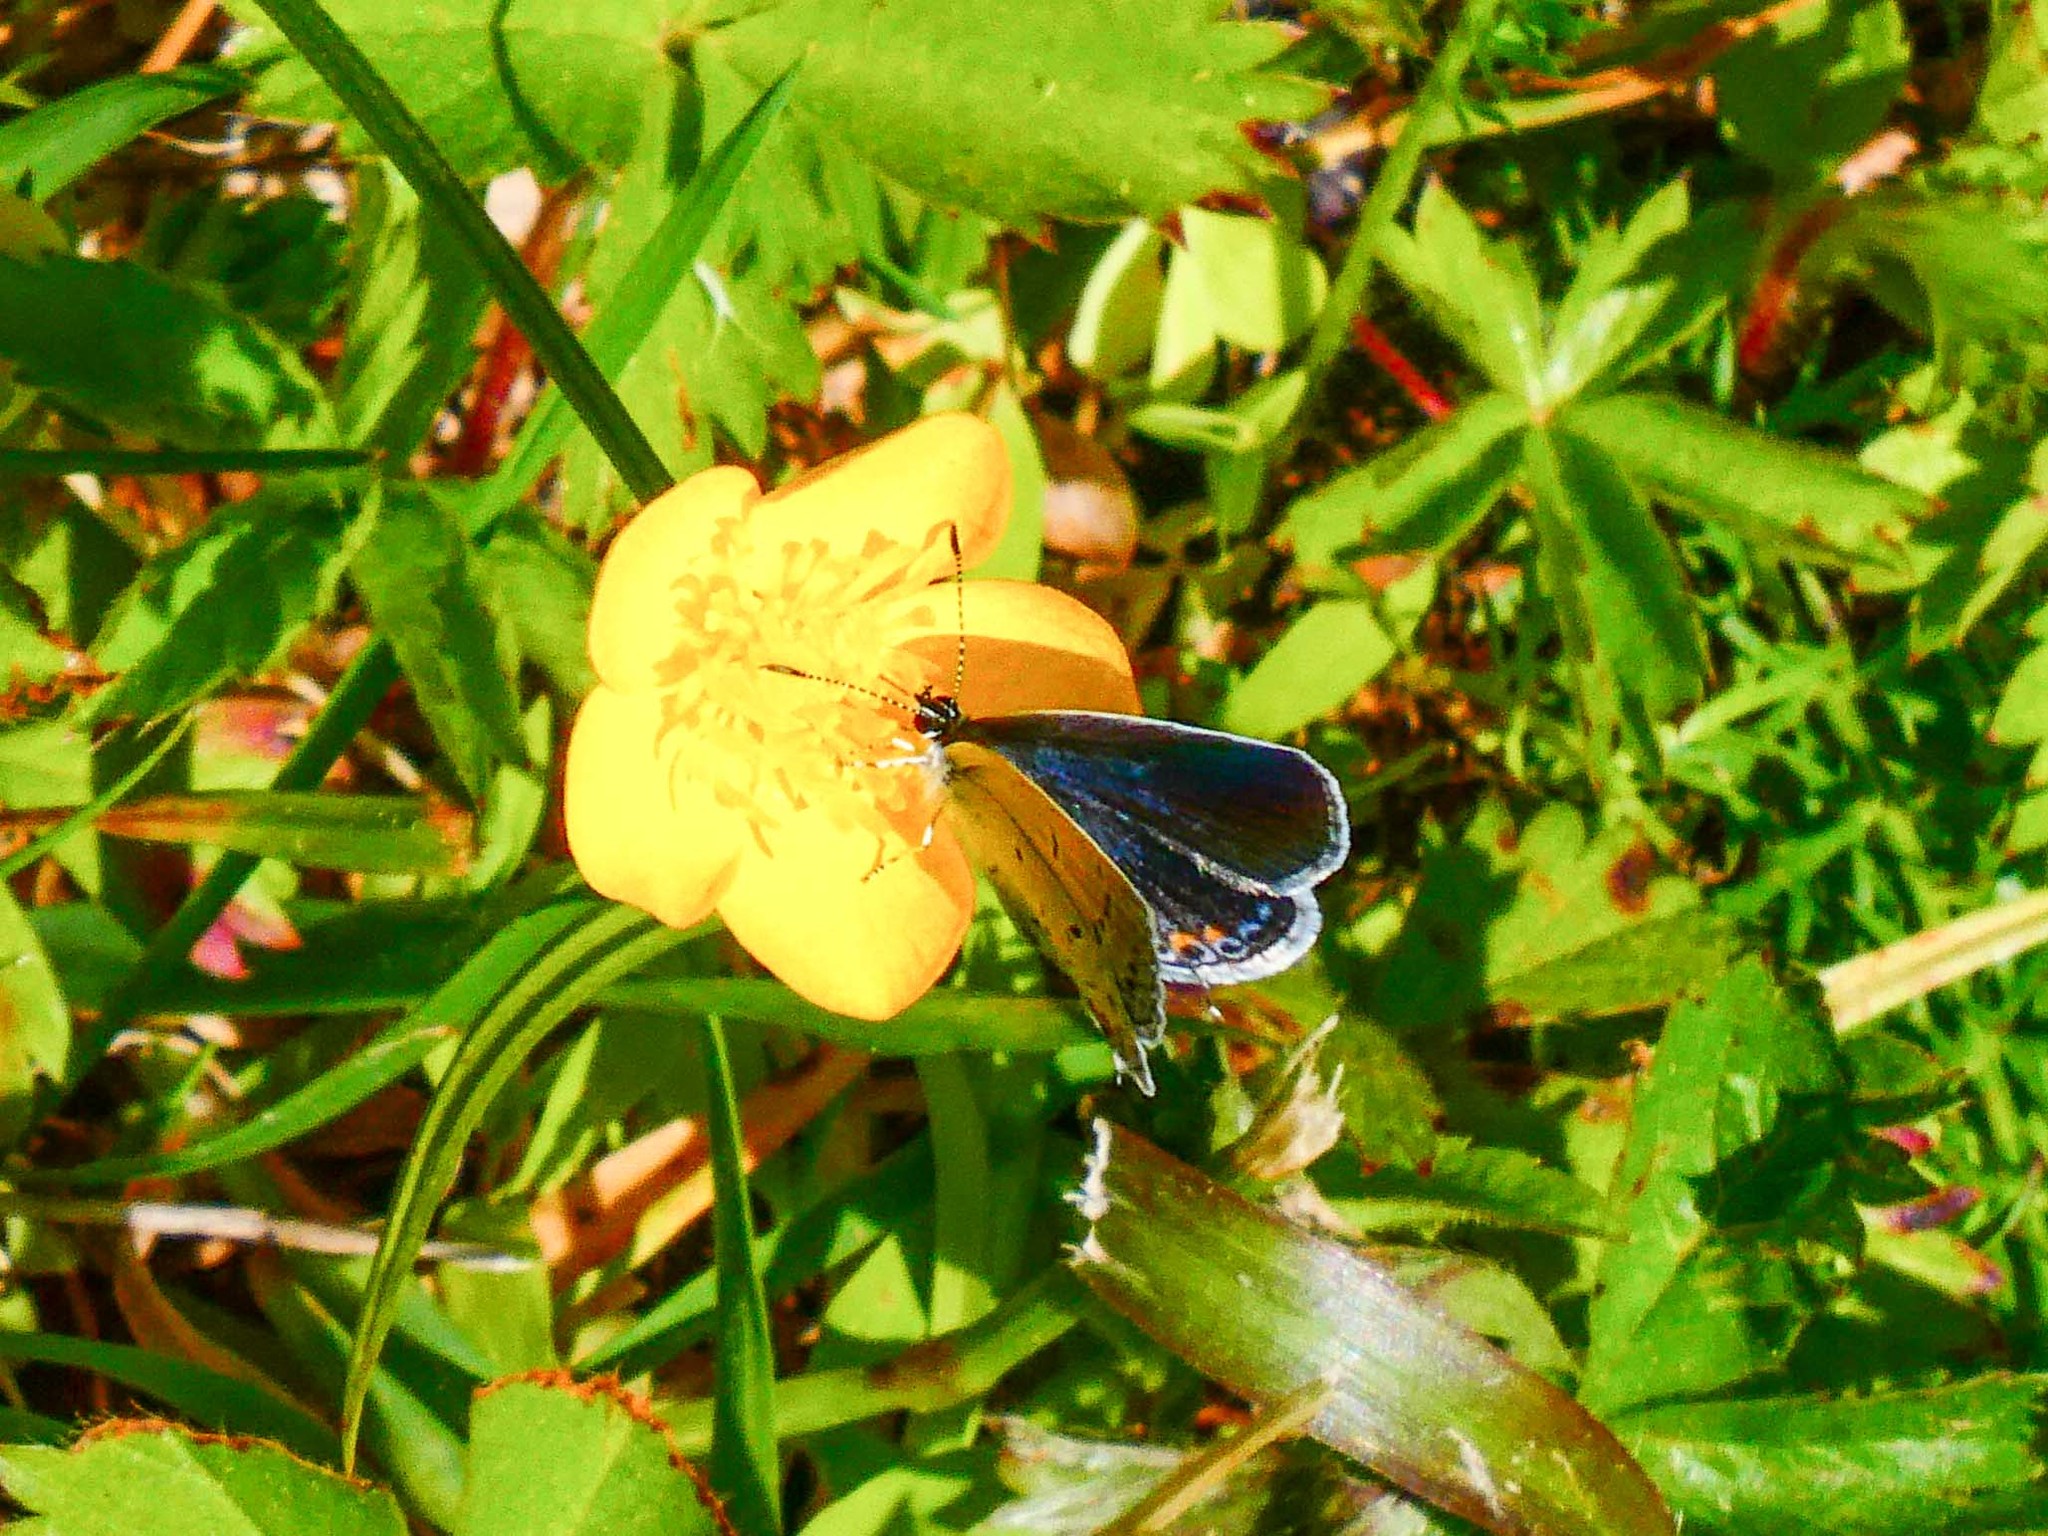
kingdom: Animalia
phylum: Arthropoda
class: Insecta
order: Lepidoptera
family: Lycaenidae
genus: Elkalyce
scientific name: Elkalyce comyntas
